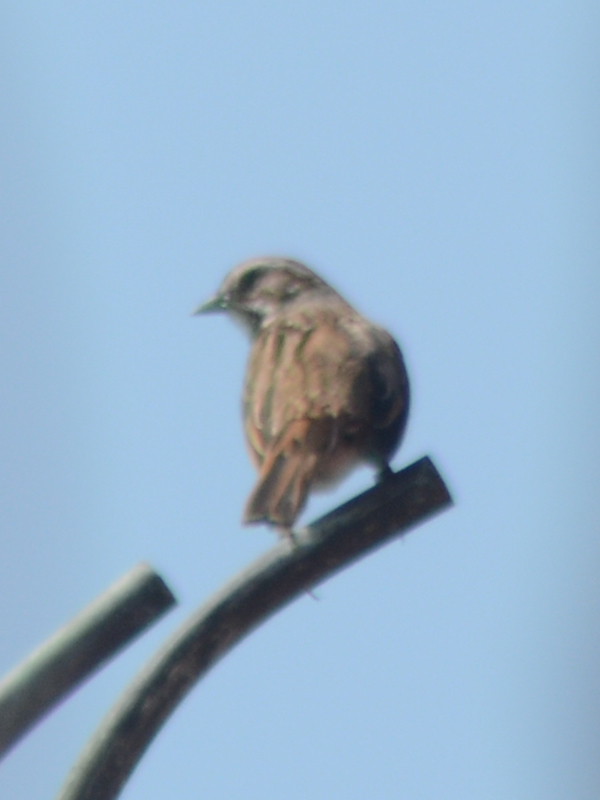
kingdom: Animalia
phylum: Chordata
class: Aves
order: Passeriformes
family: Passerellidae
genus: Melospiza
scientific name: Melospiza melodia
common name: Song sparrow
